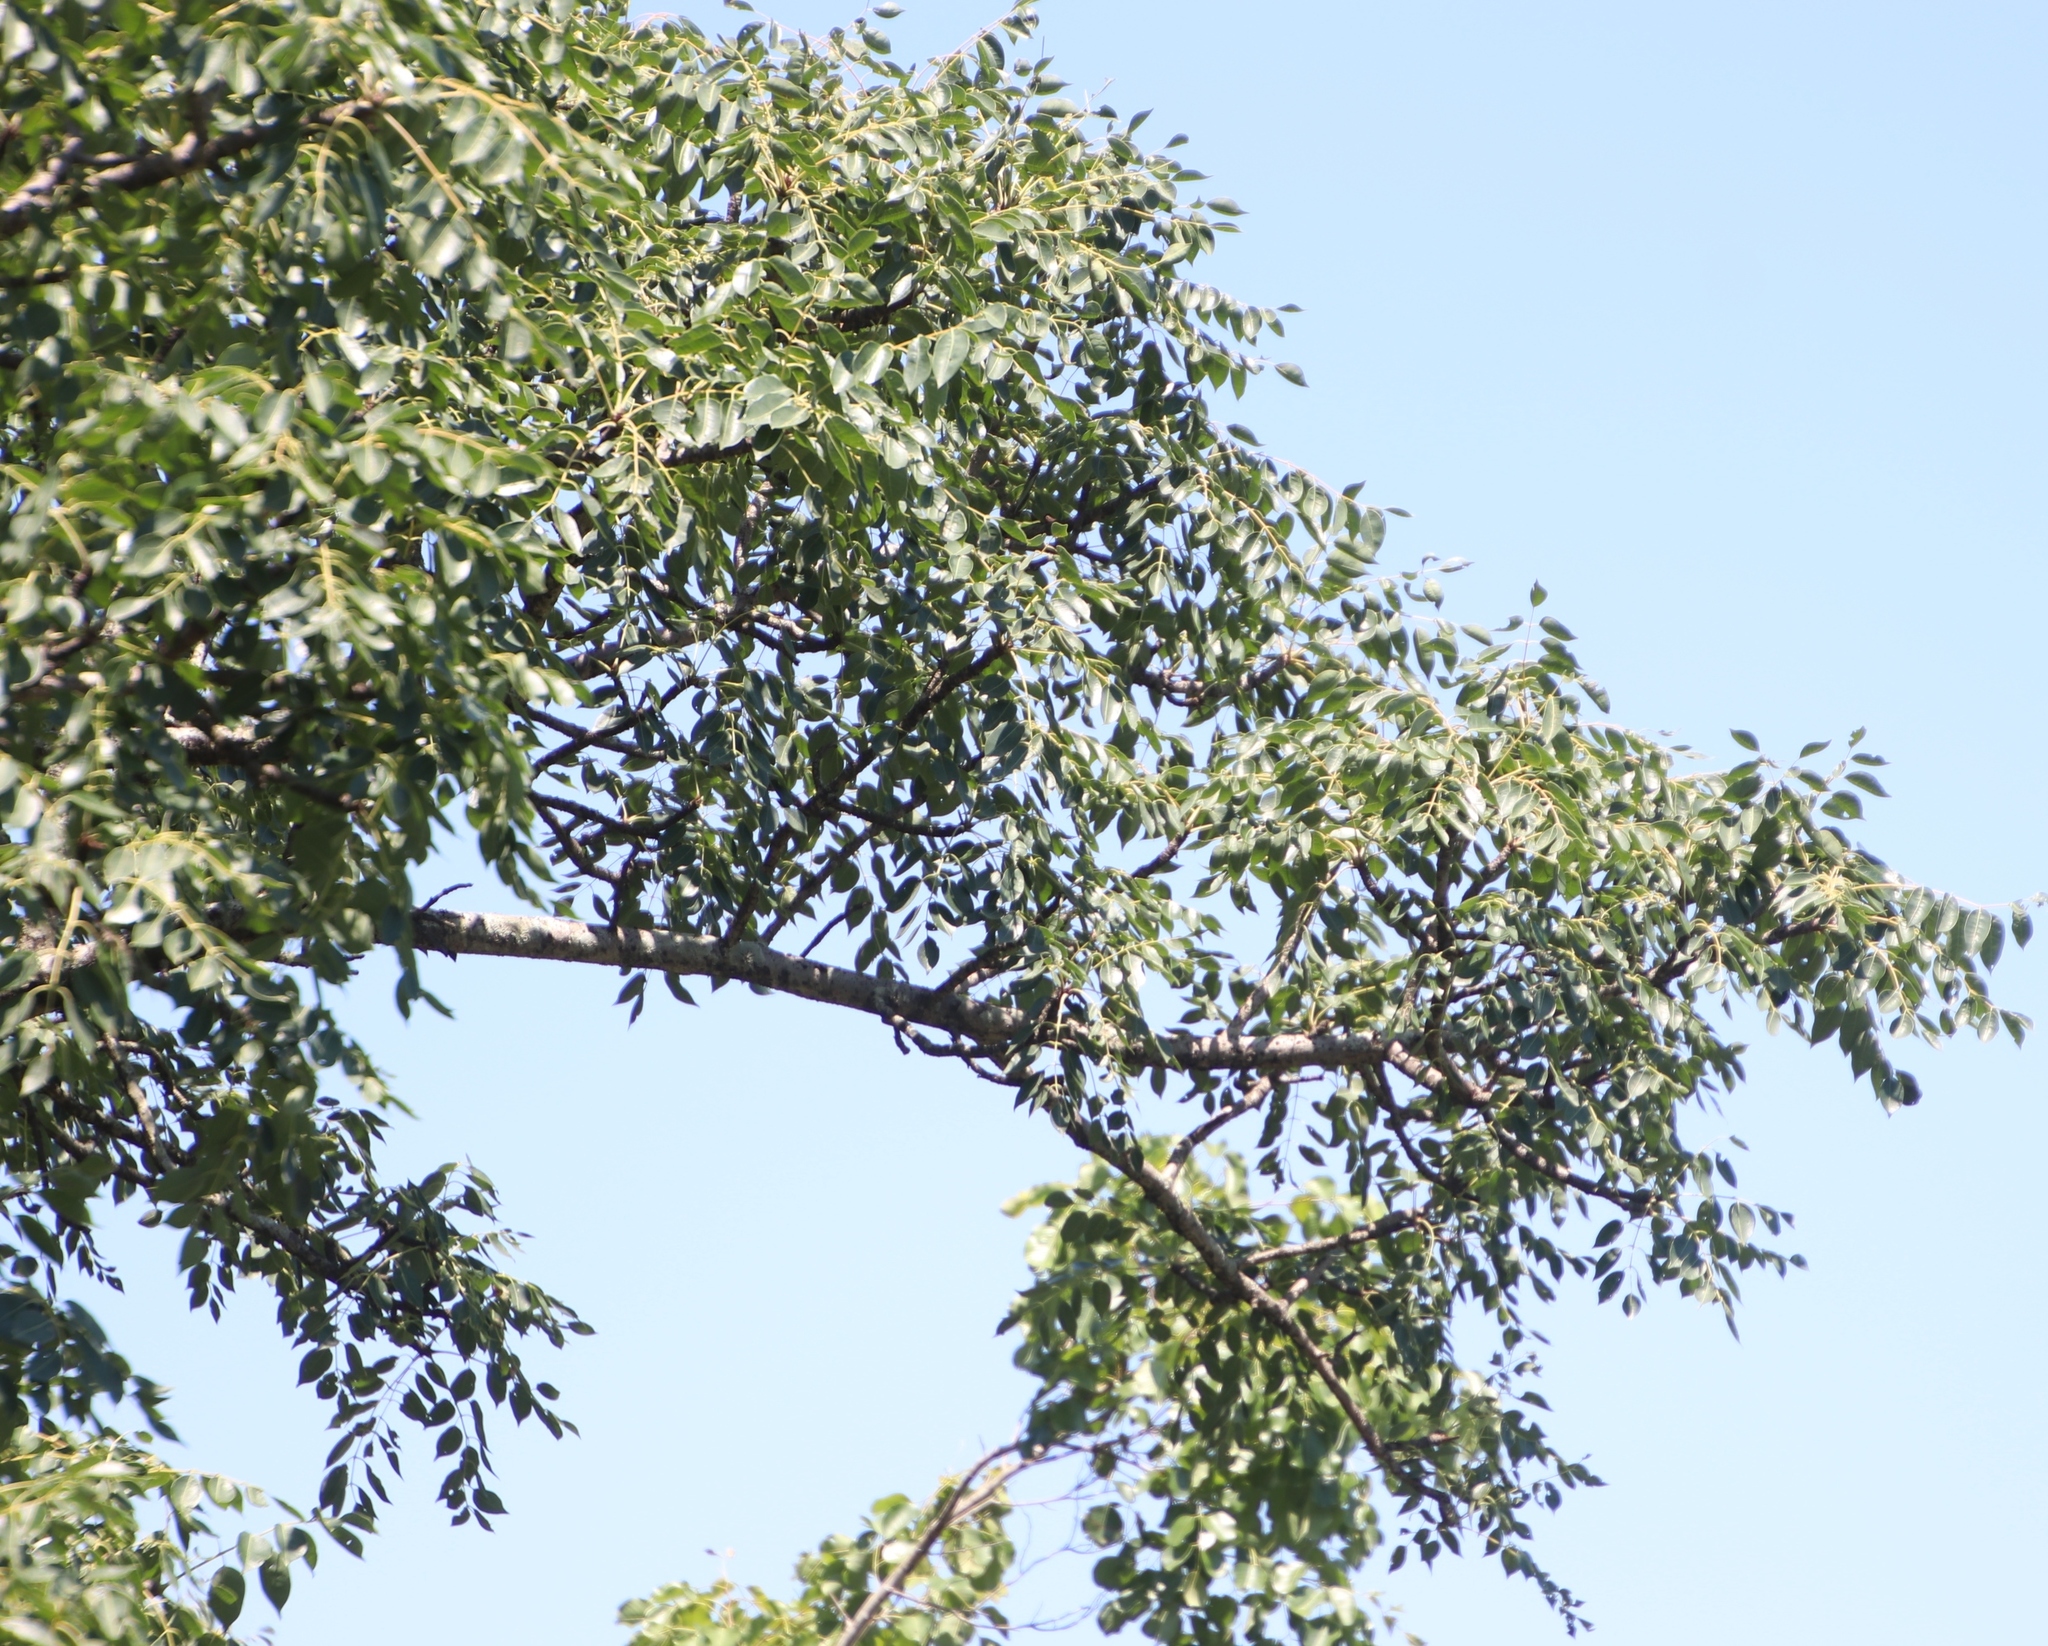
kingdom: Plantae
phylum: Tracheophyta
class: Magnoliopsida
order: Sapindales
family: Anacardiaceae
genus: Sclerocarya
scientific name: Sclerocarya birrea
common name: Marula
